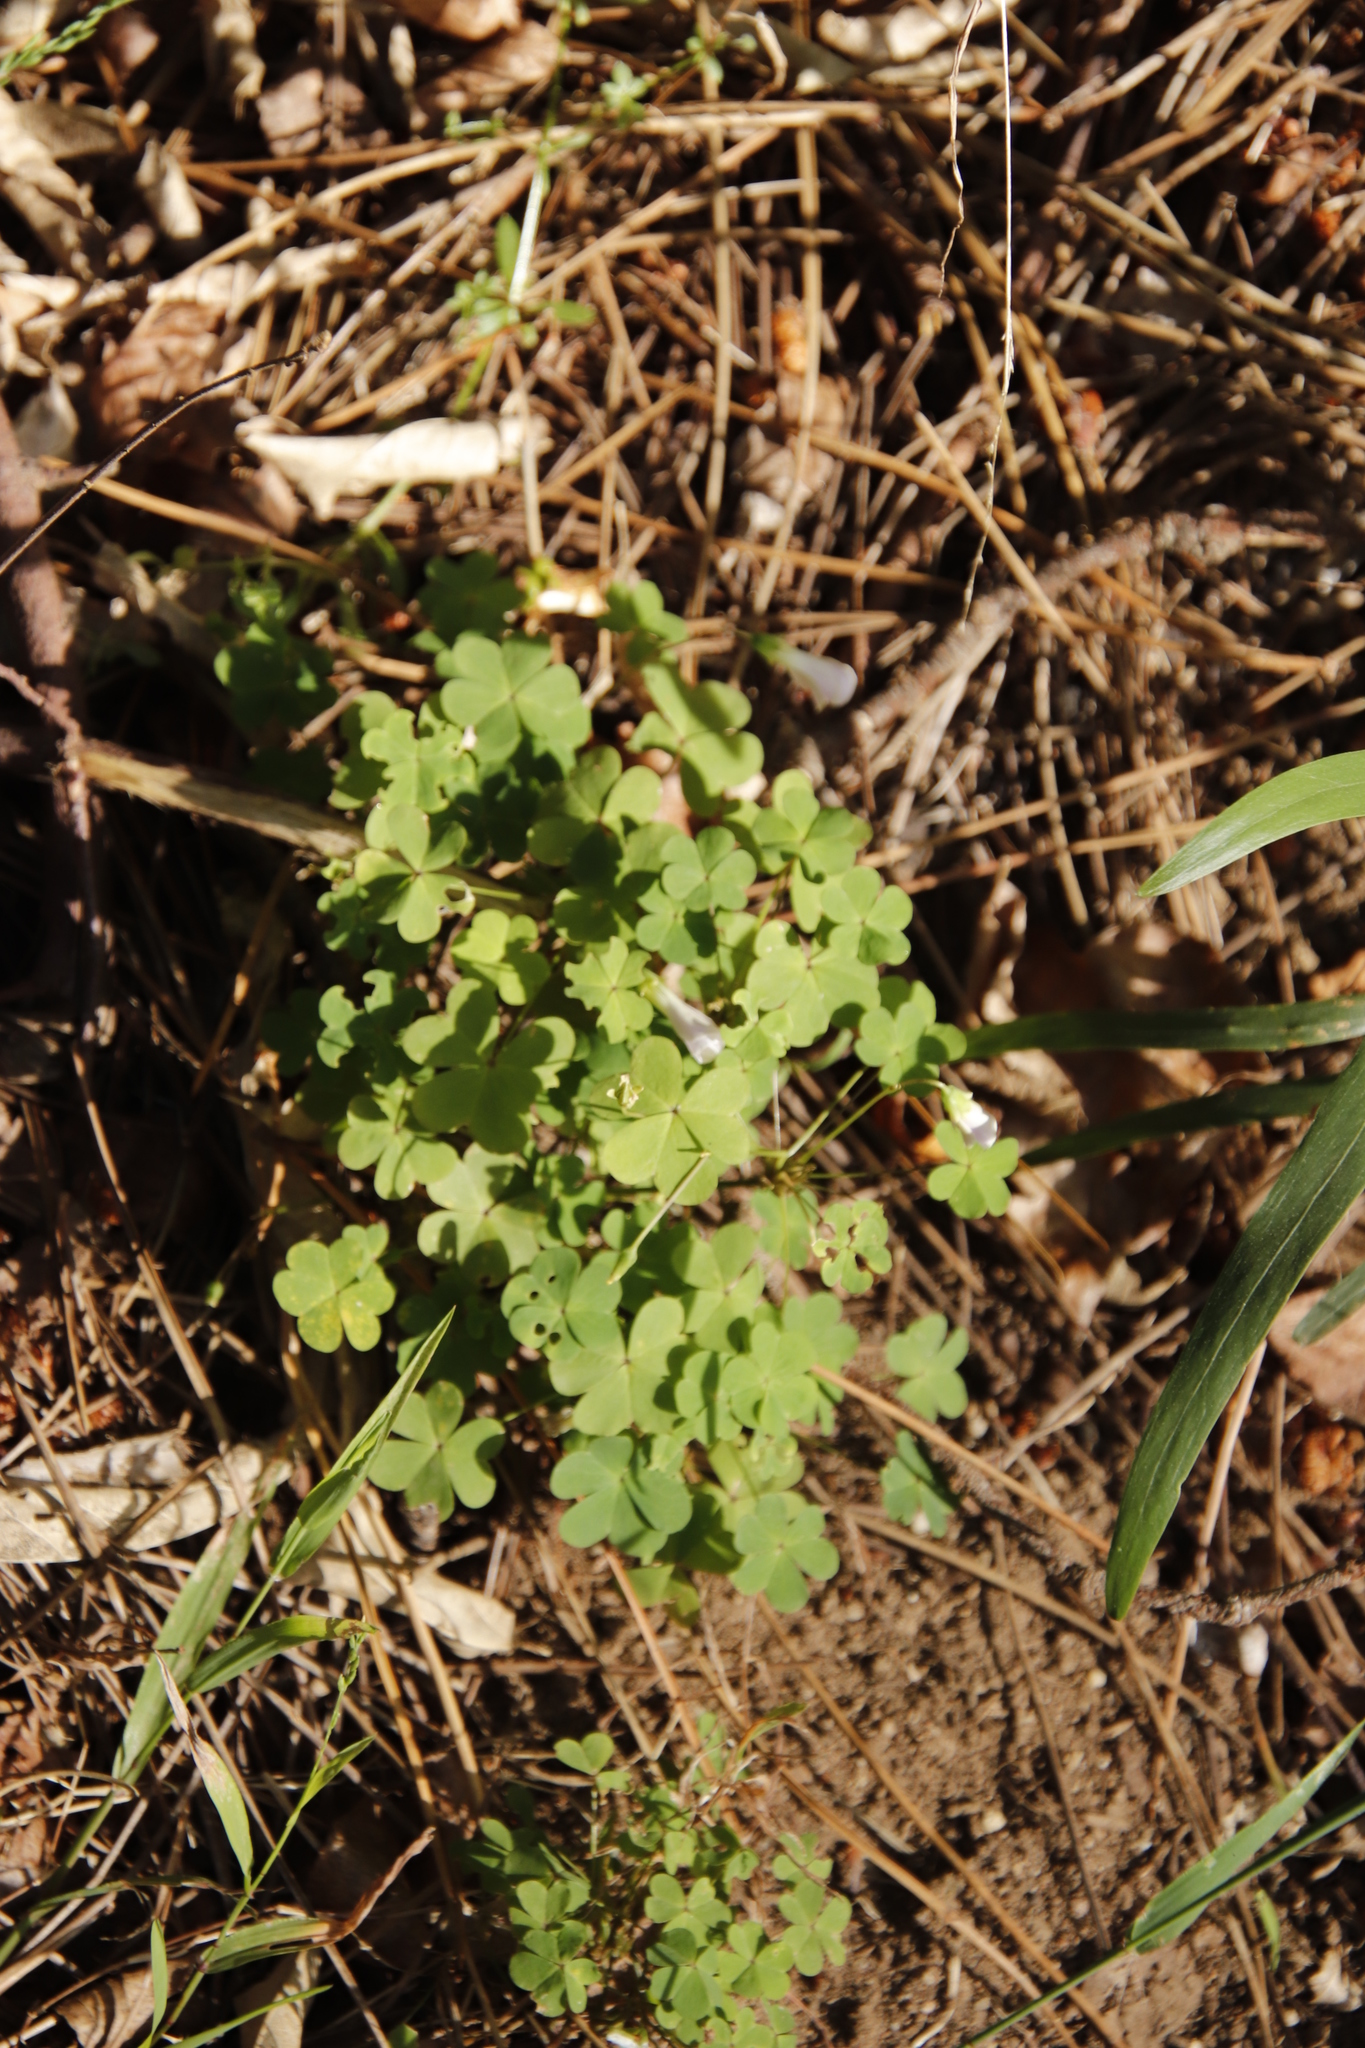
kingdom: Plantae
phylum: Tracheophyta
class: Magnoliopsida
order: Oxalidales
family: Oxalidaceae
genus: Oxalis
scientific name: Oxalis incarnata
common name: Pale pink-sorrel
